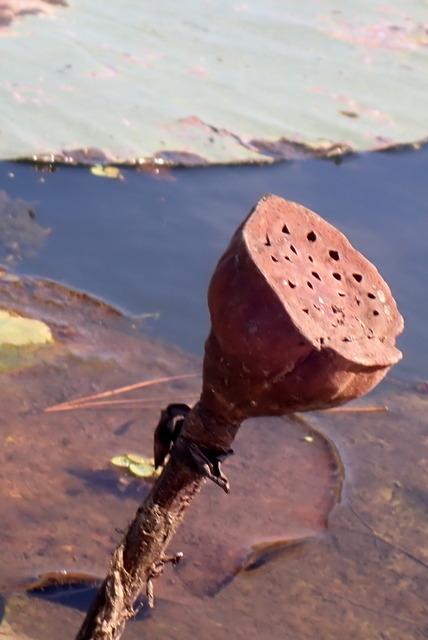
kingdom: Plantae
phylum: Tracheophyta
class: Magnoliopsida
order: Proteales
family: Nelumbonaceae
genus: Nelumbo
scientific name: Nelumbo lutea
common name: American lotus
